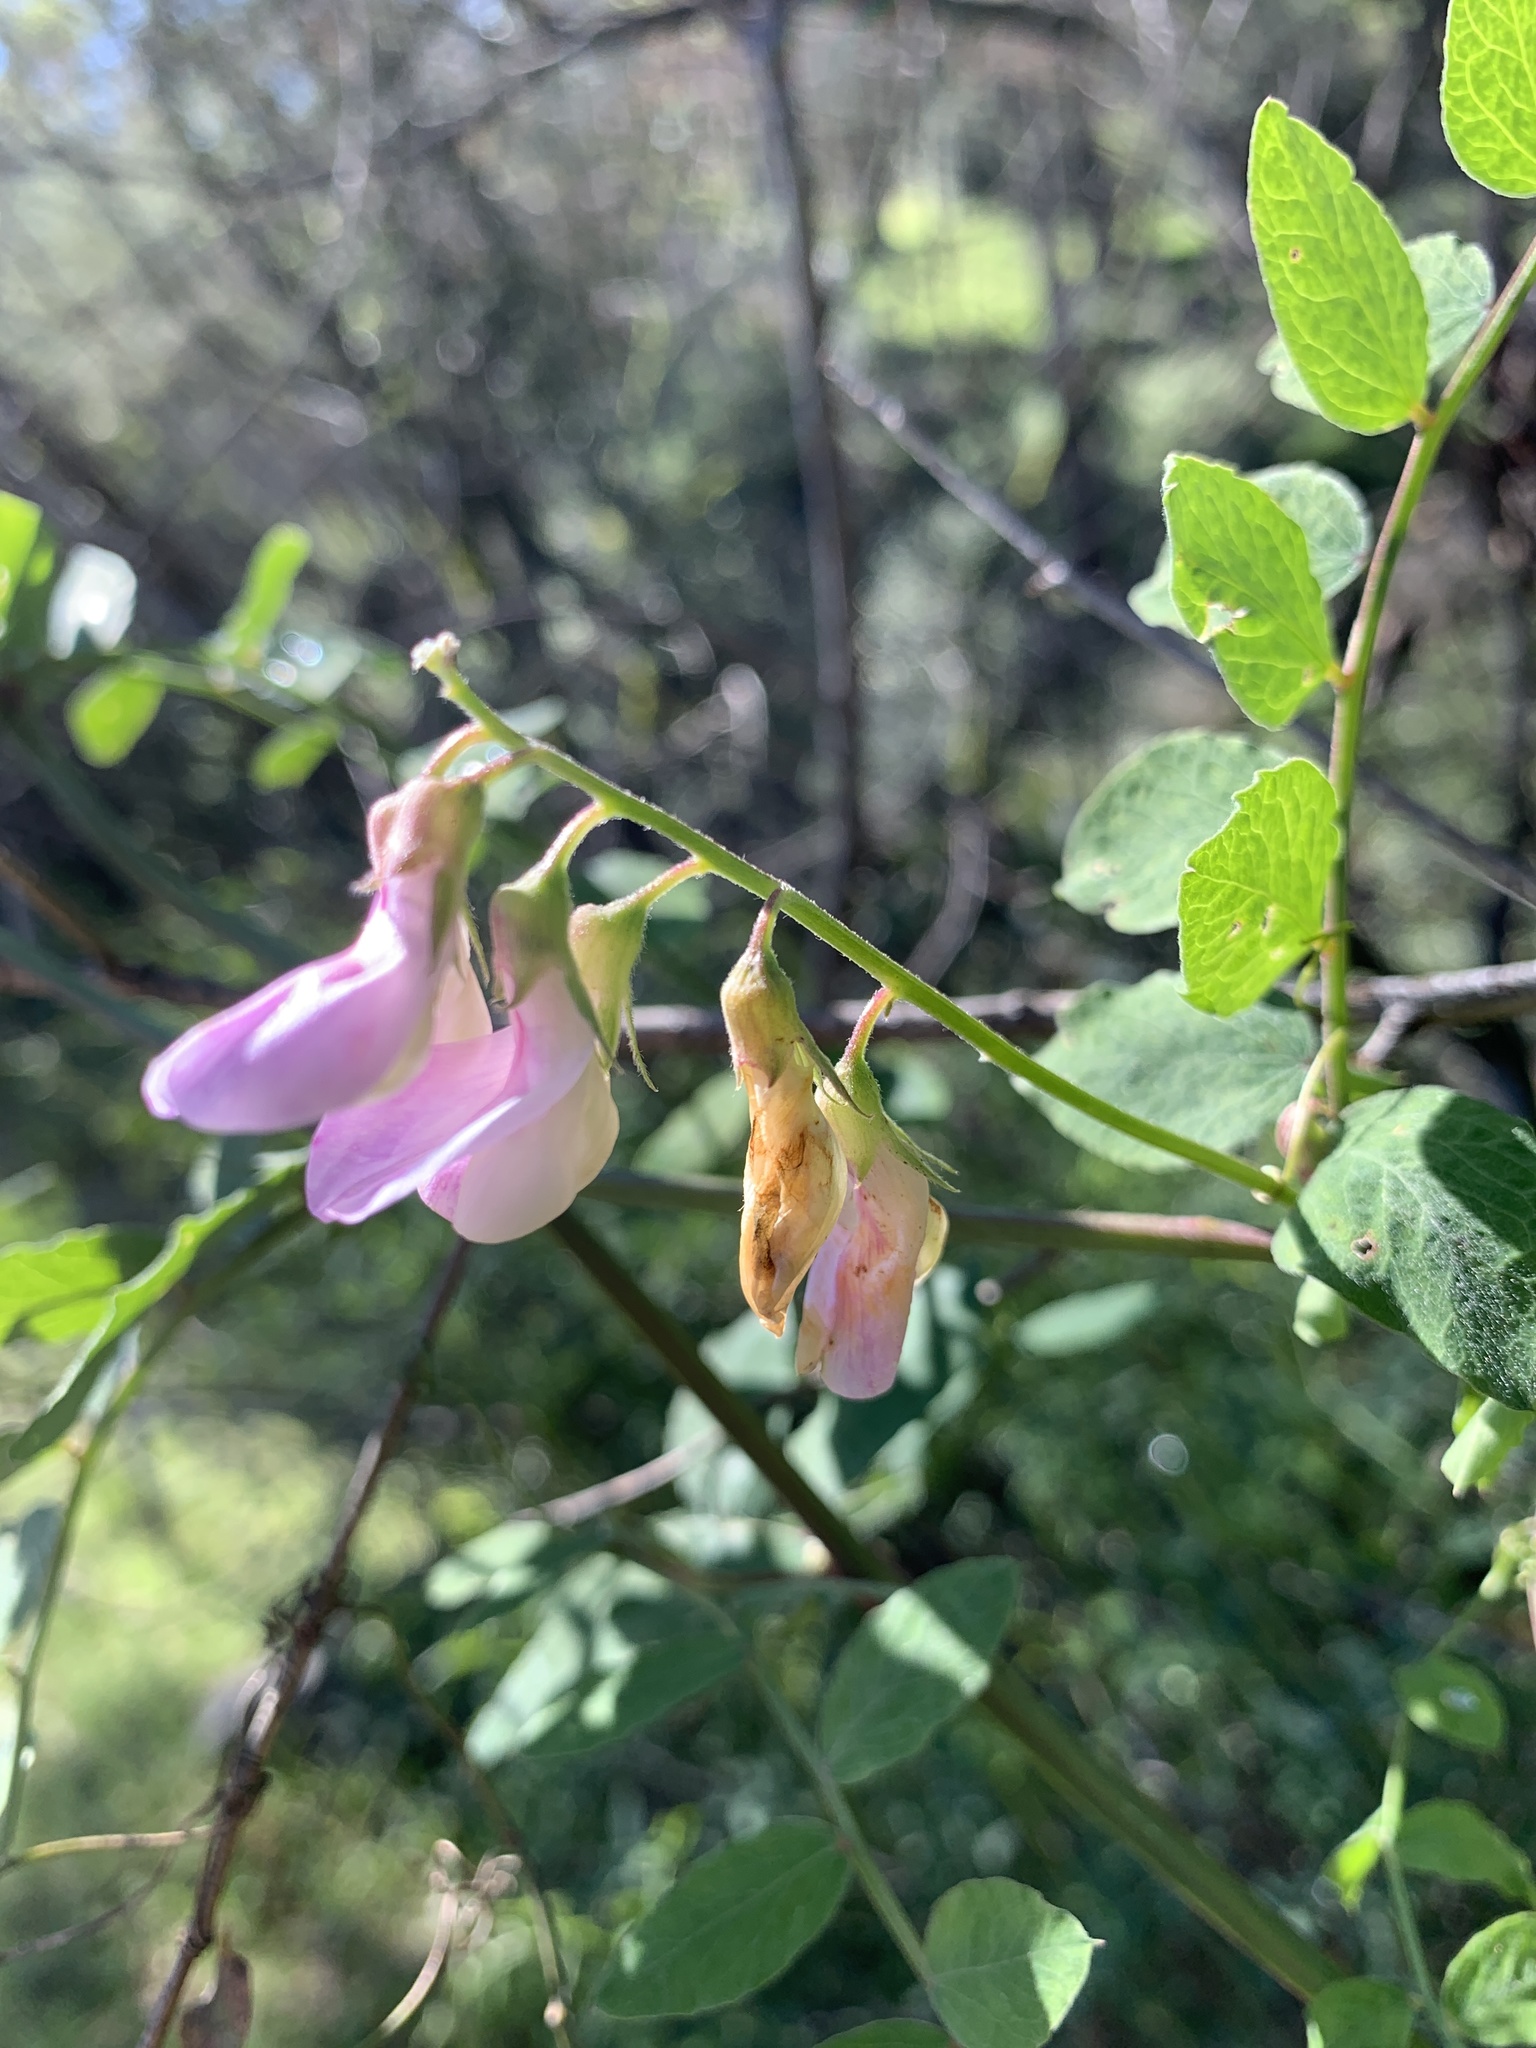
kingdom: Plantae
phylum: Tracheophyta
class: Magnoliopsida
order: Fabales
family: Fabaceae
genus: Lathyrus
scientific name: Lathyrus vestitus
